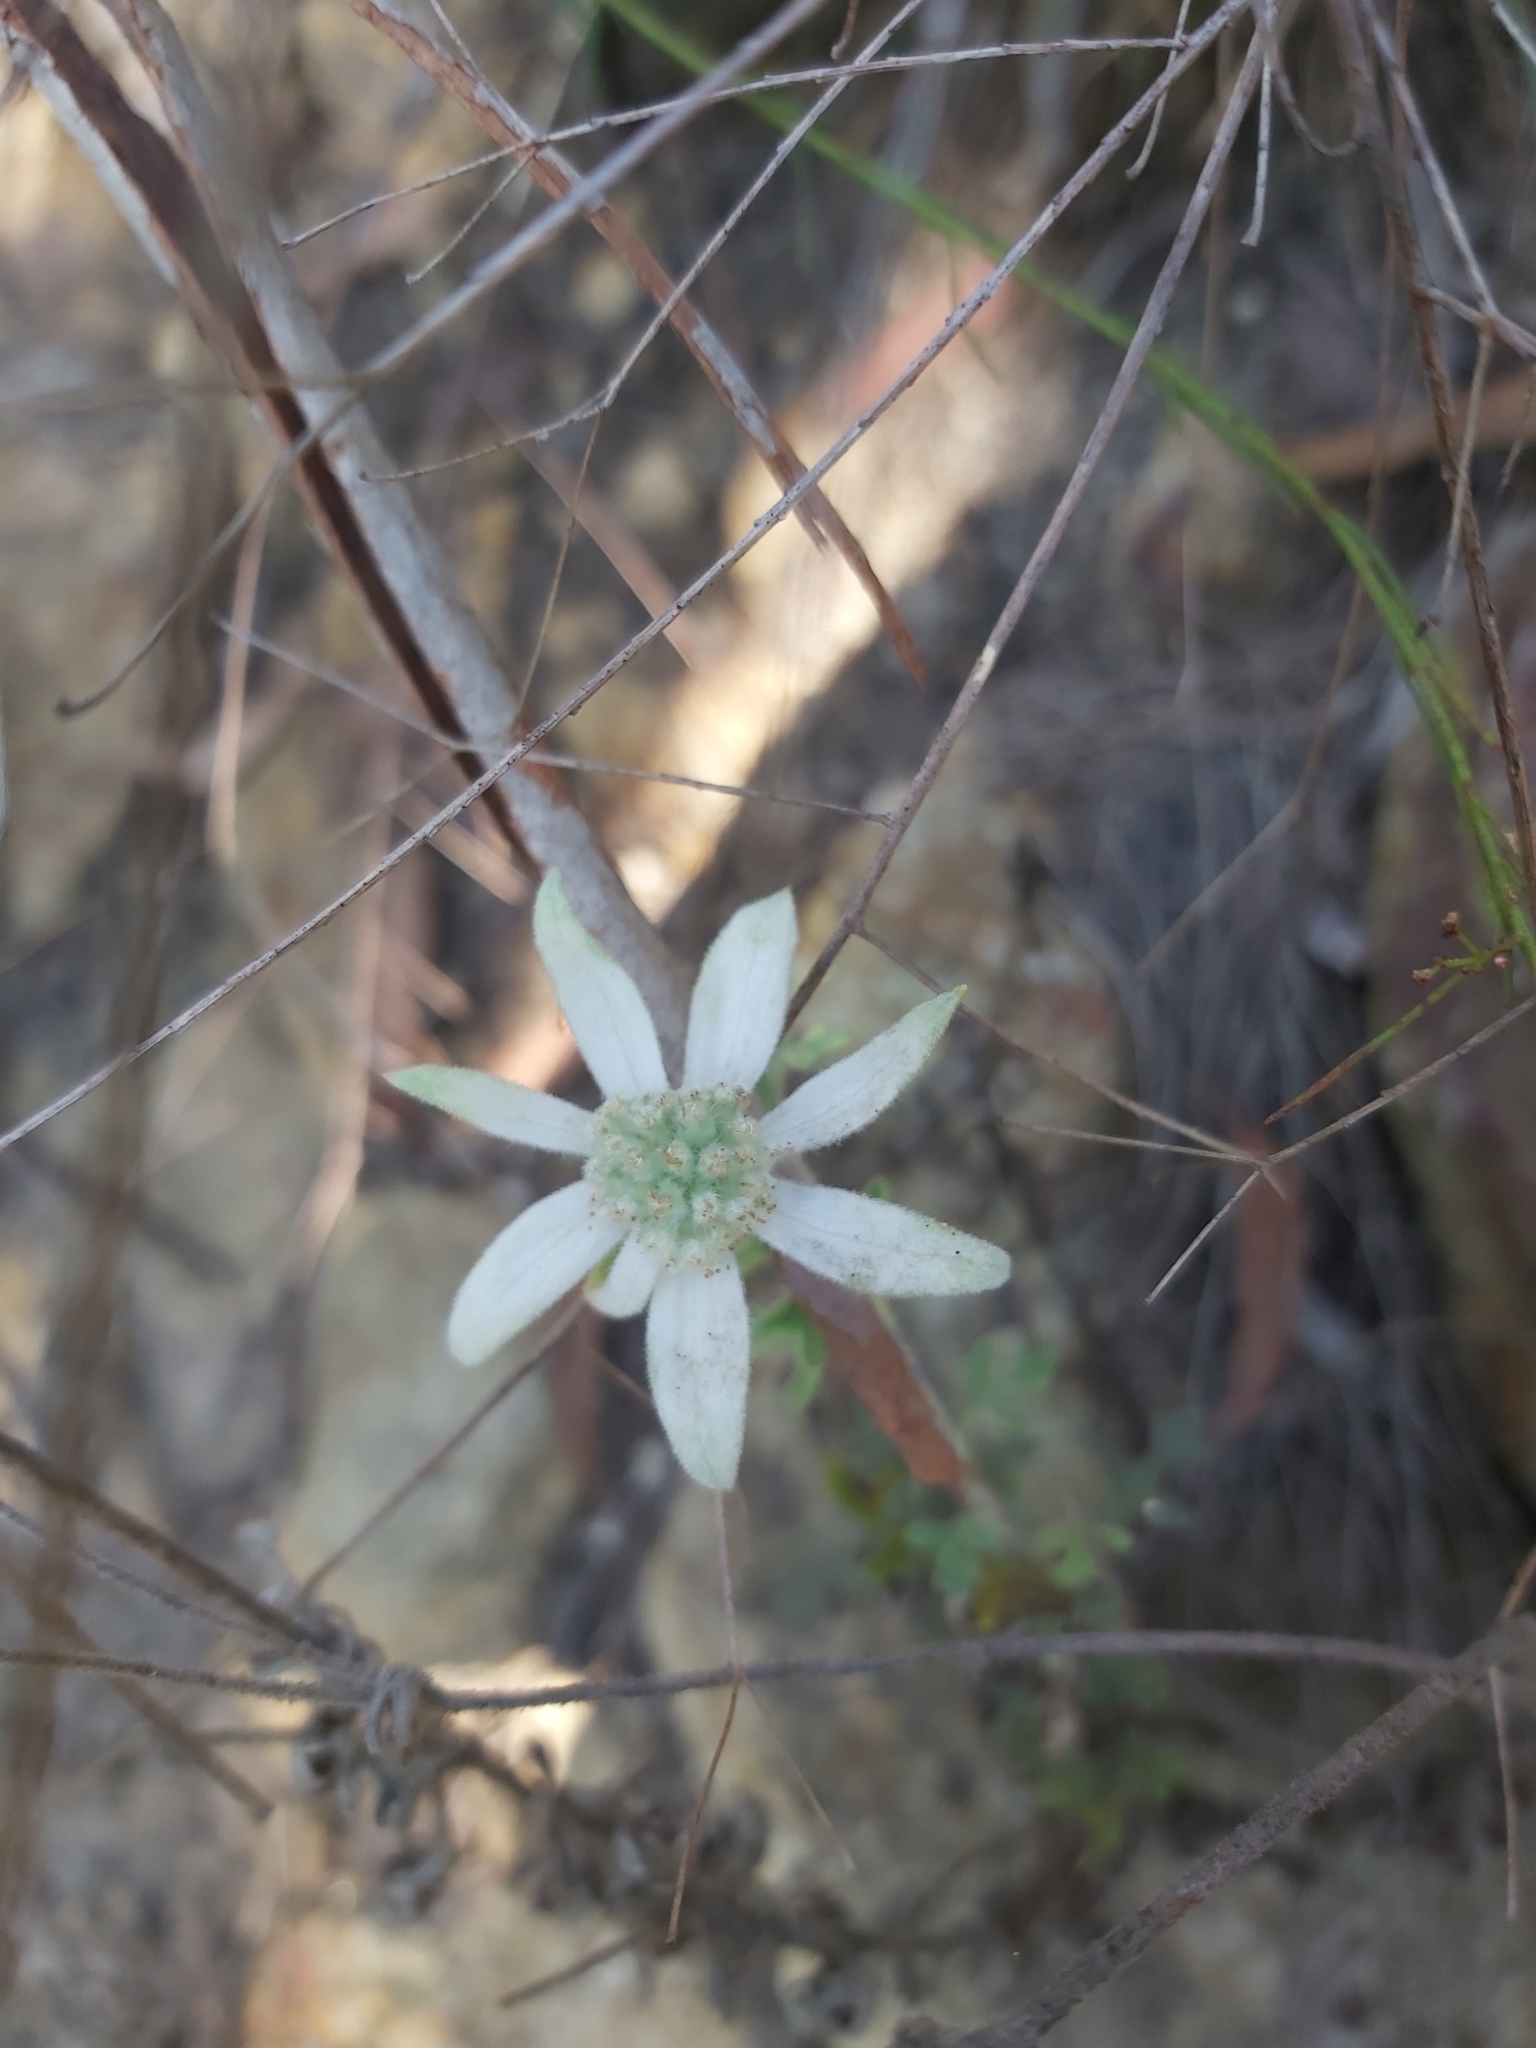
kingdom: Plantae
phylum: Tracheophyta
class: Magnoliopsida
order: Apiales
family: Apiaceae
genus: Actinotus
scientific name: Actinotus helianthi
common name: Flannel-flower
